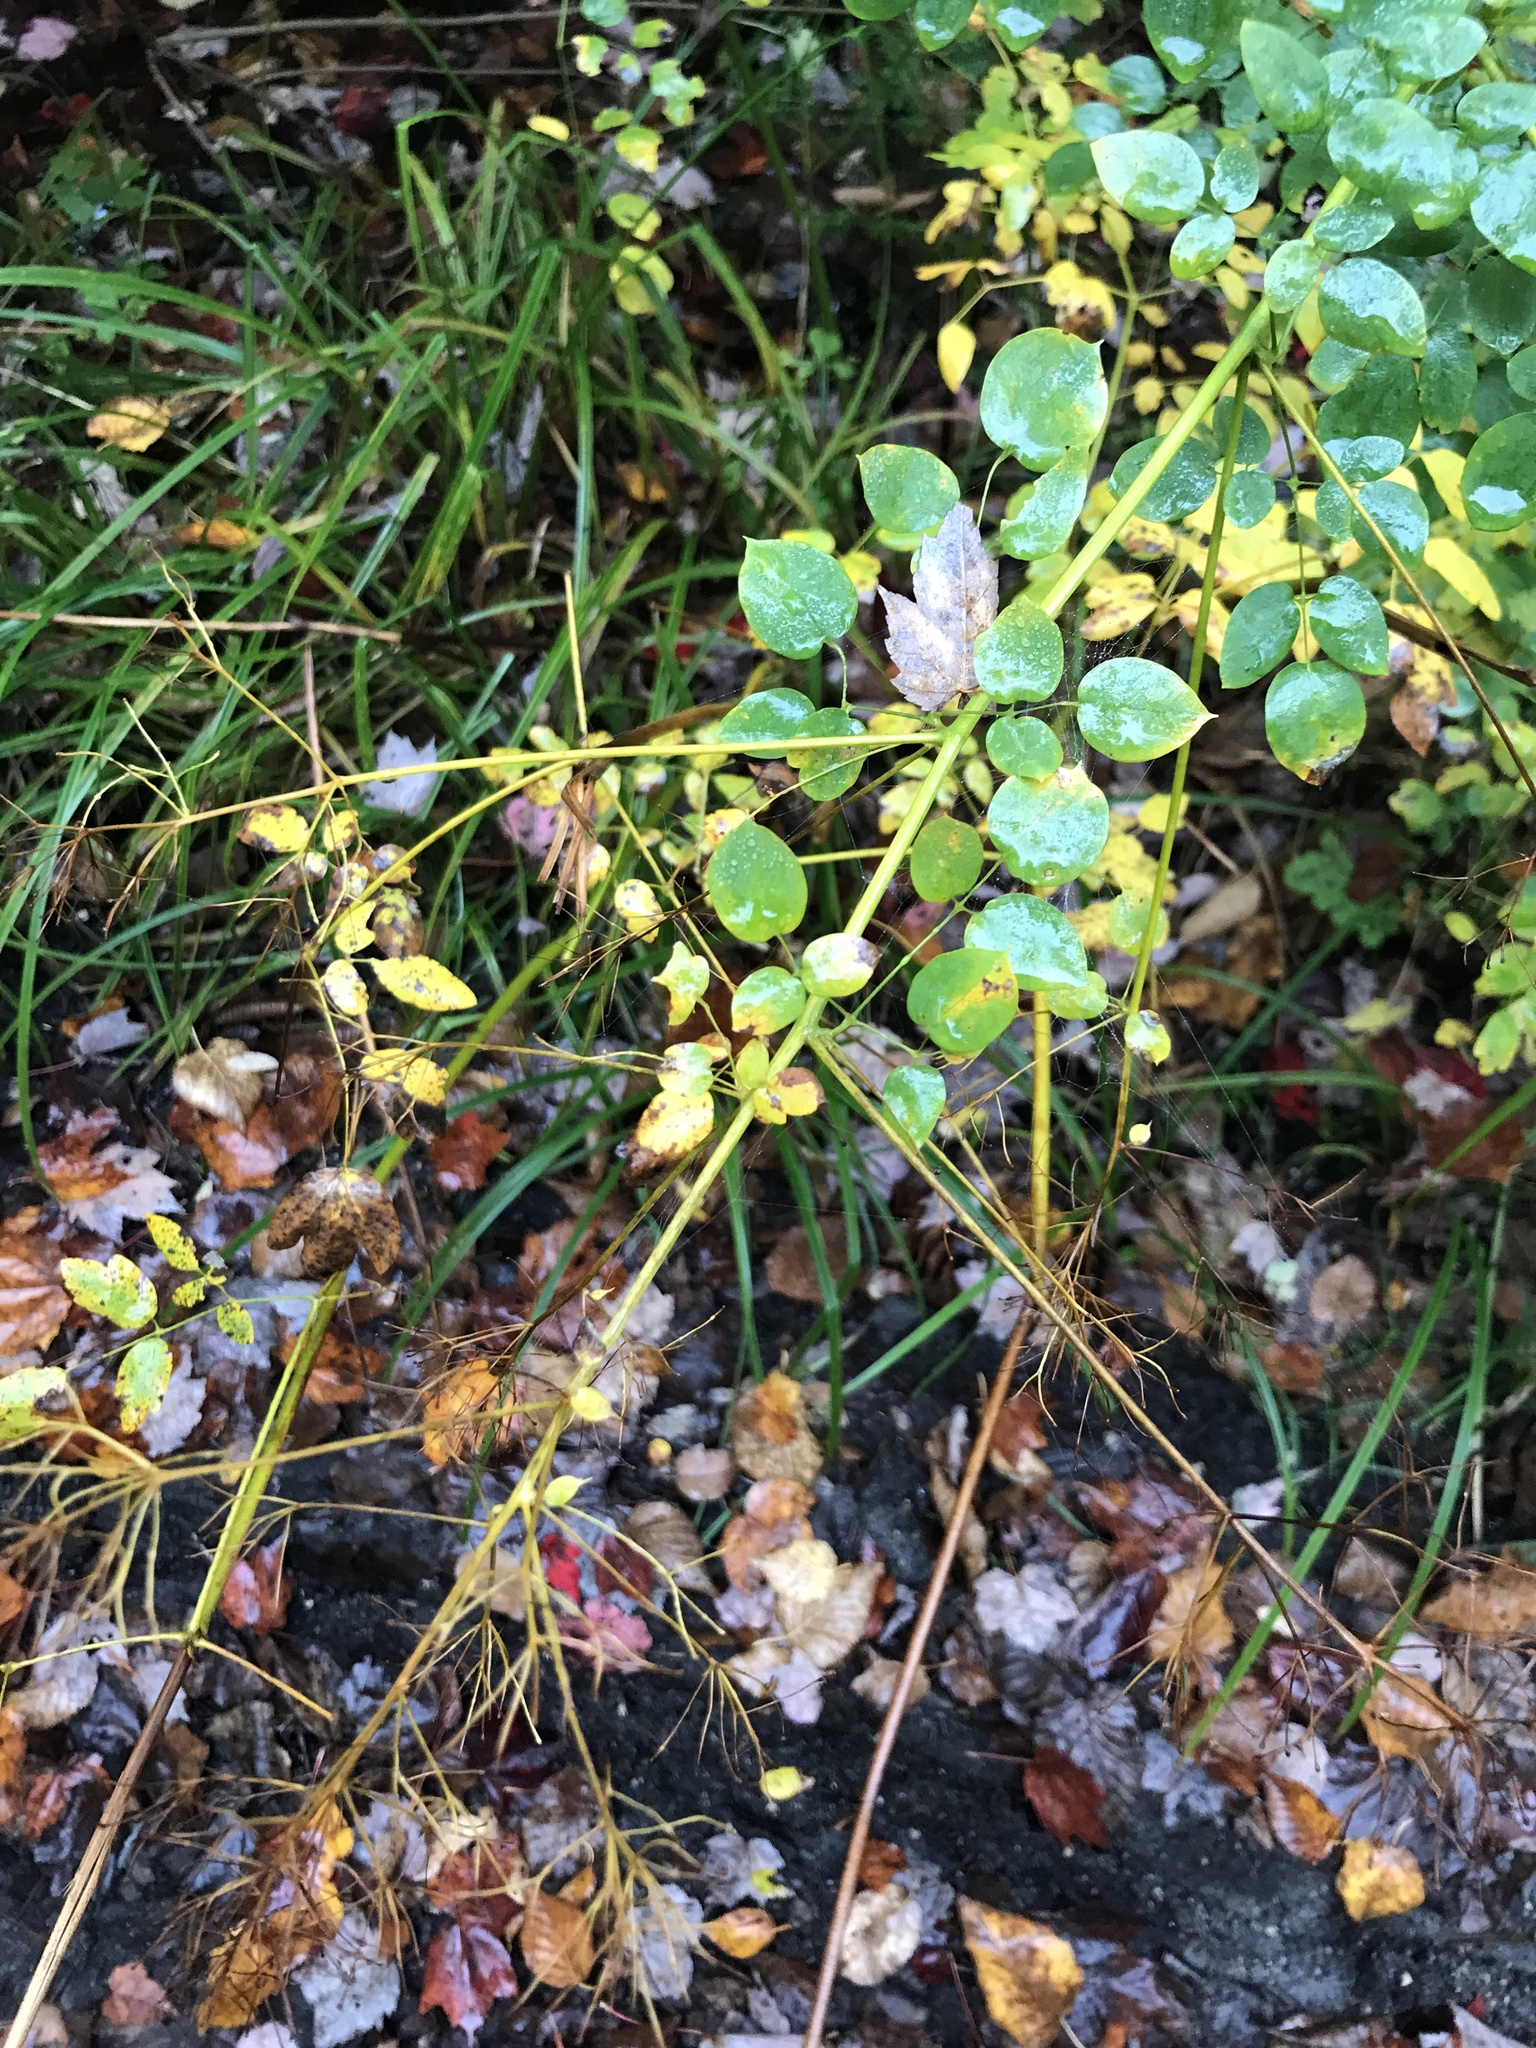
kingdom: Plantae
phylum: Tracheophyta
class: Magnoliopsida
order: Ranunculales
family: Ranunculaceae
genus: Thalictrum
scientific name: Thalictrum pubescens
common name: King-of-the-meadow
